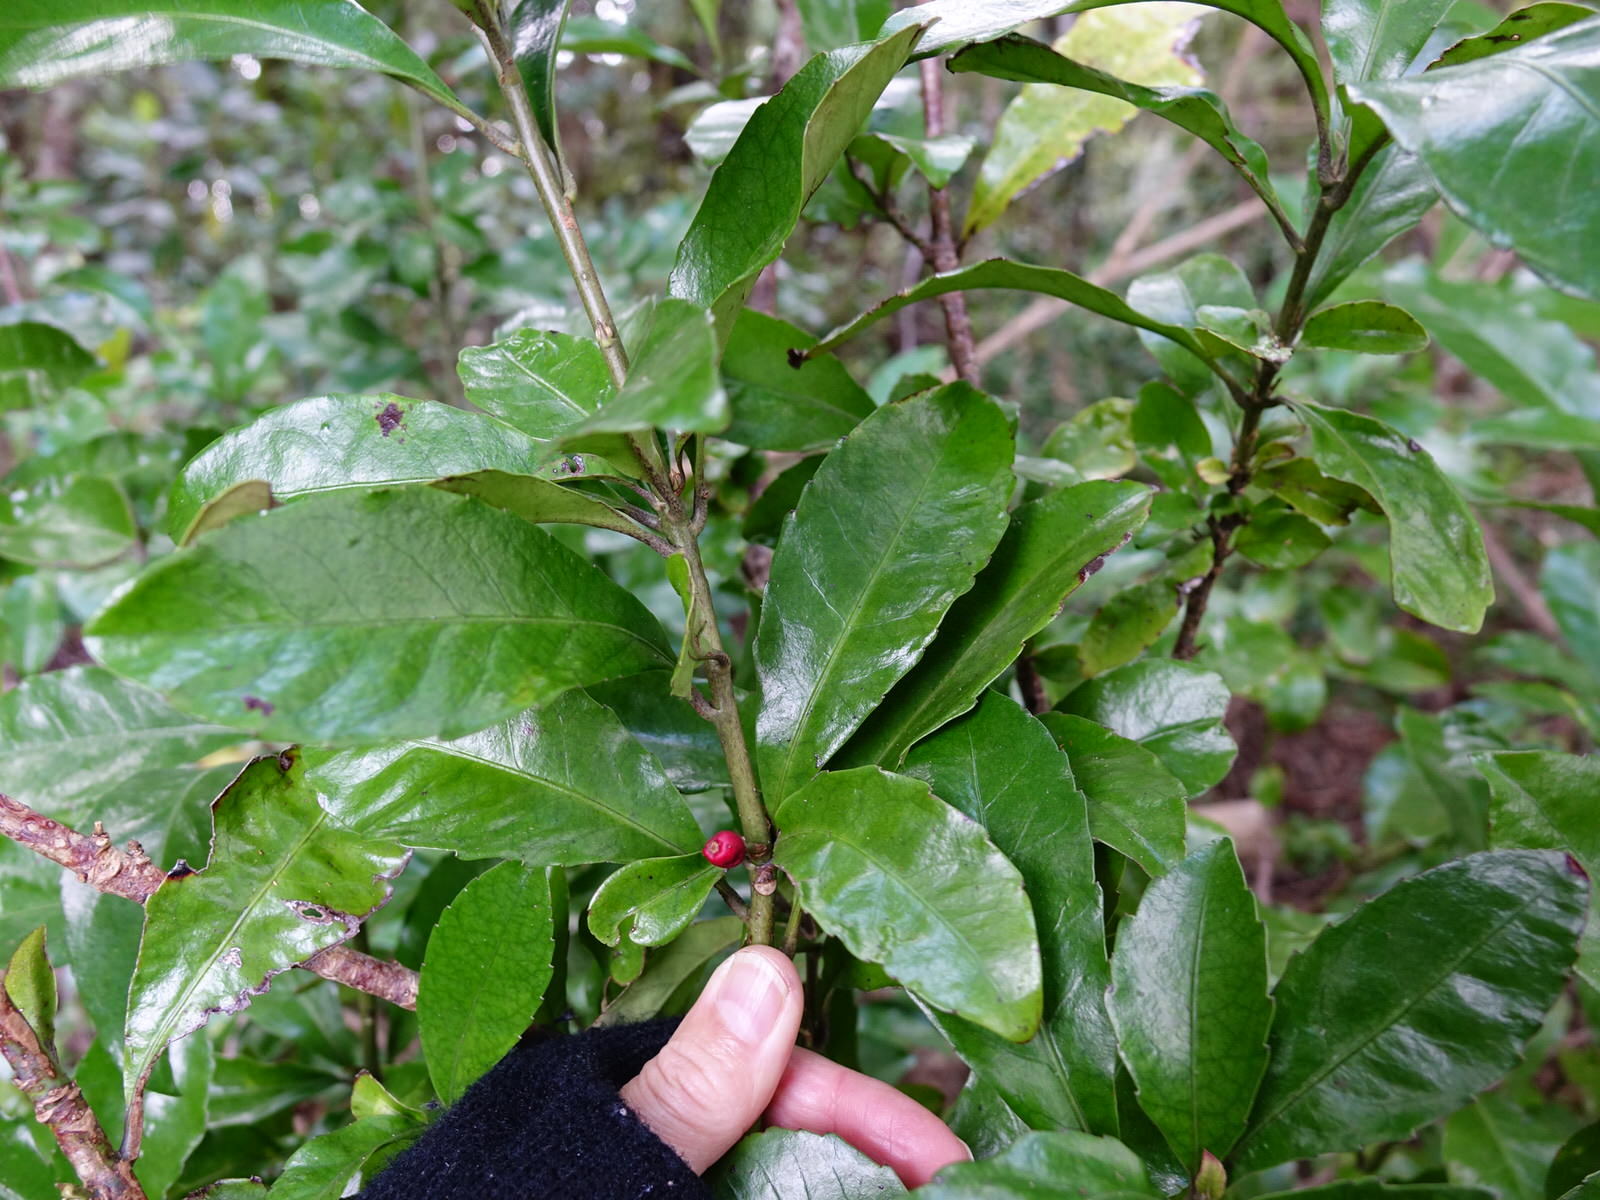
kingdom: Plantae
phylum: Tracheophyta
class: Magnoliopsida
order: Asterales
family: Alseuosmiaceae
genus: Alseuosmia
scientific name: Alseuosmia macrophylla
